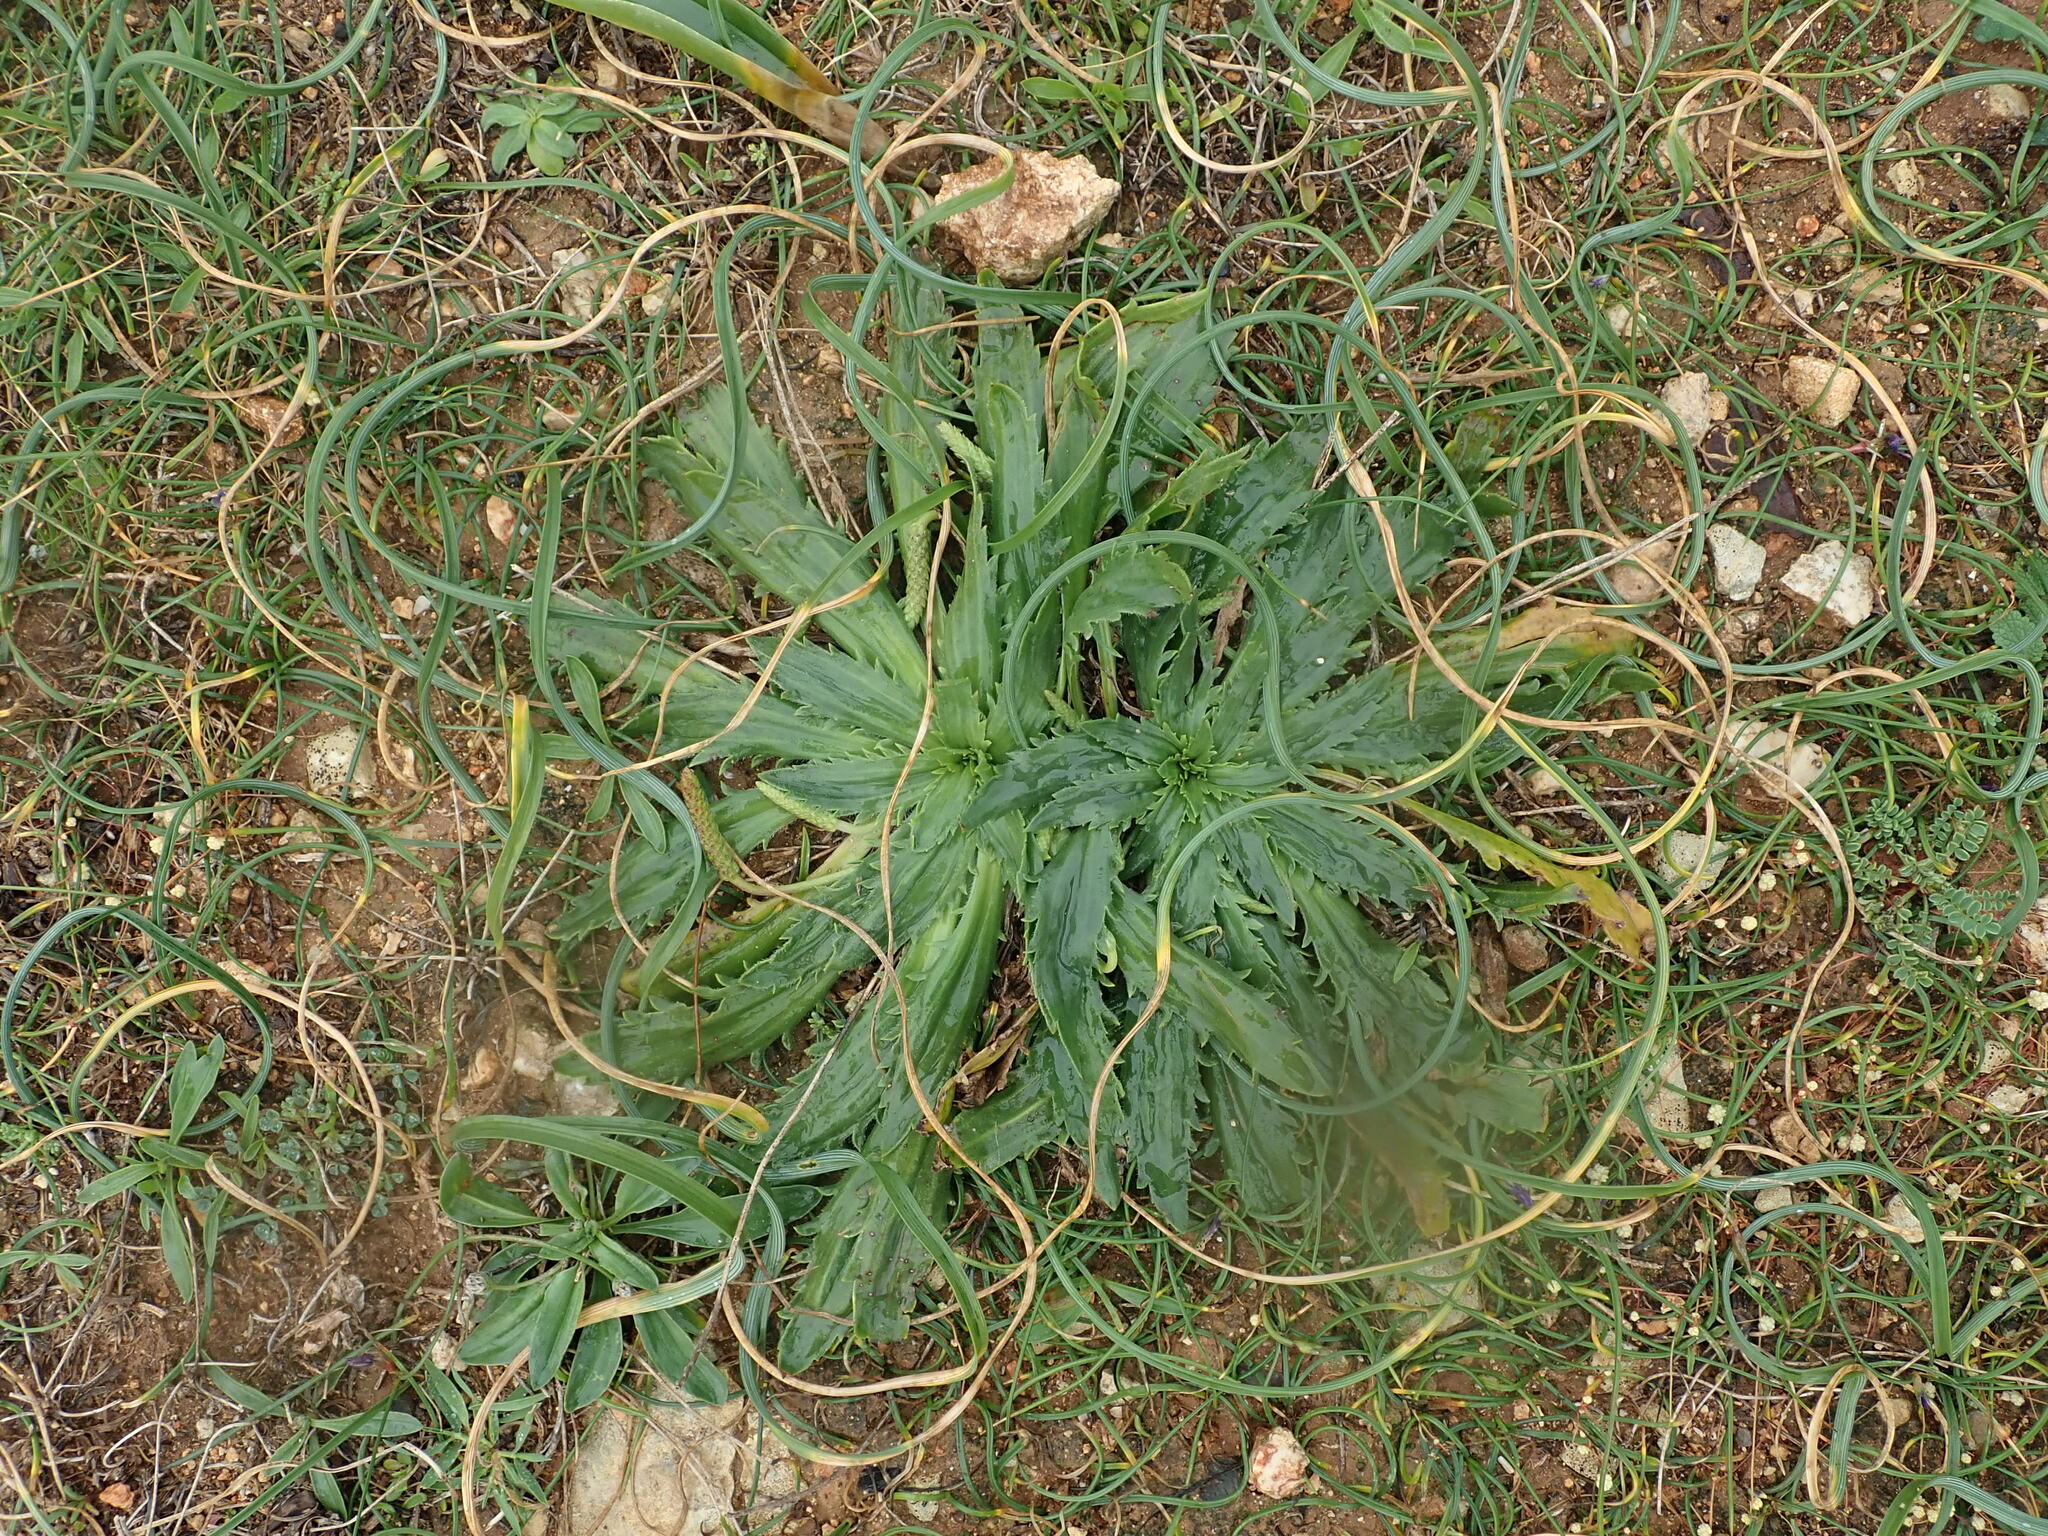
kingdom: Plantae
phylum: Tracheophyta
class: Magnoliopsida
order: Lamiales
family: Plantaginaceae
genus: Plantago
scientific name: Plantago serraria
